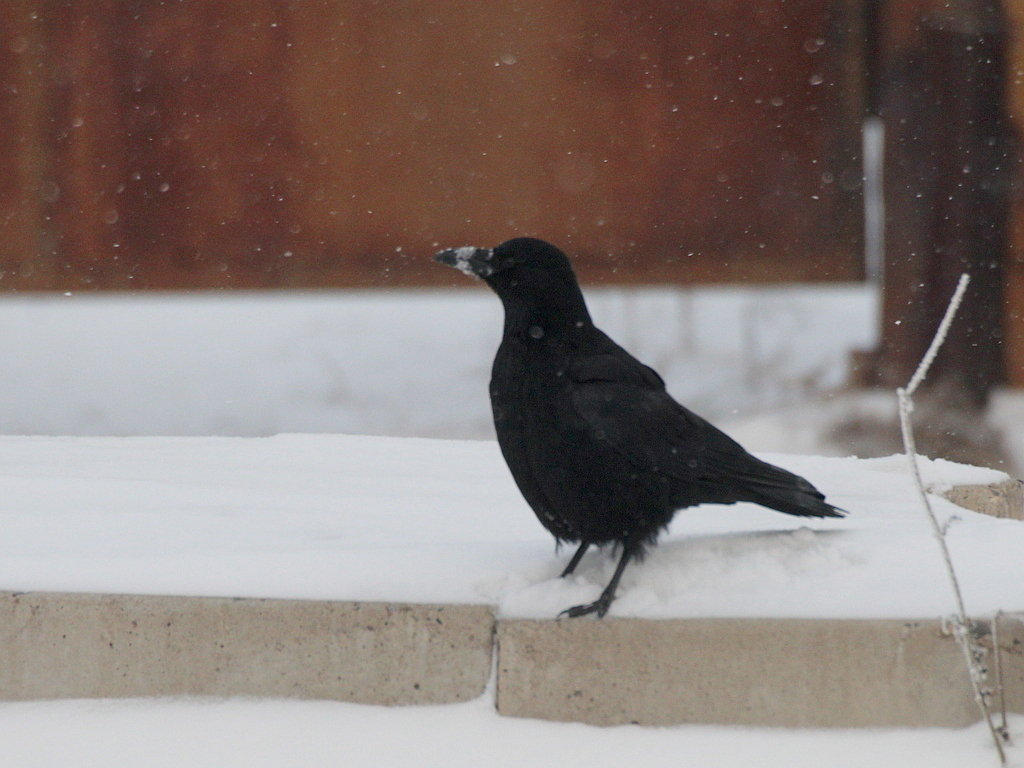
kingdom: Animalia
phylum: Chordata
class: Aves
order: Passeriformes
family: Corvidae
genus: Corvus
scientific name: Corvus corone
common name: Carrion crow
